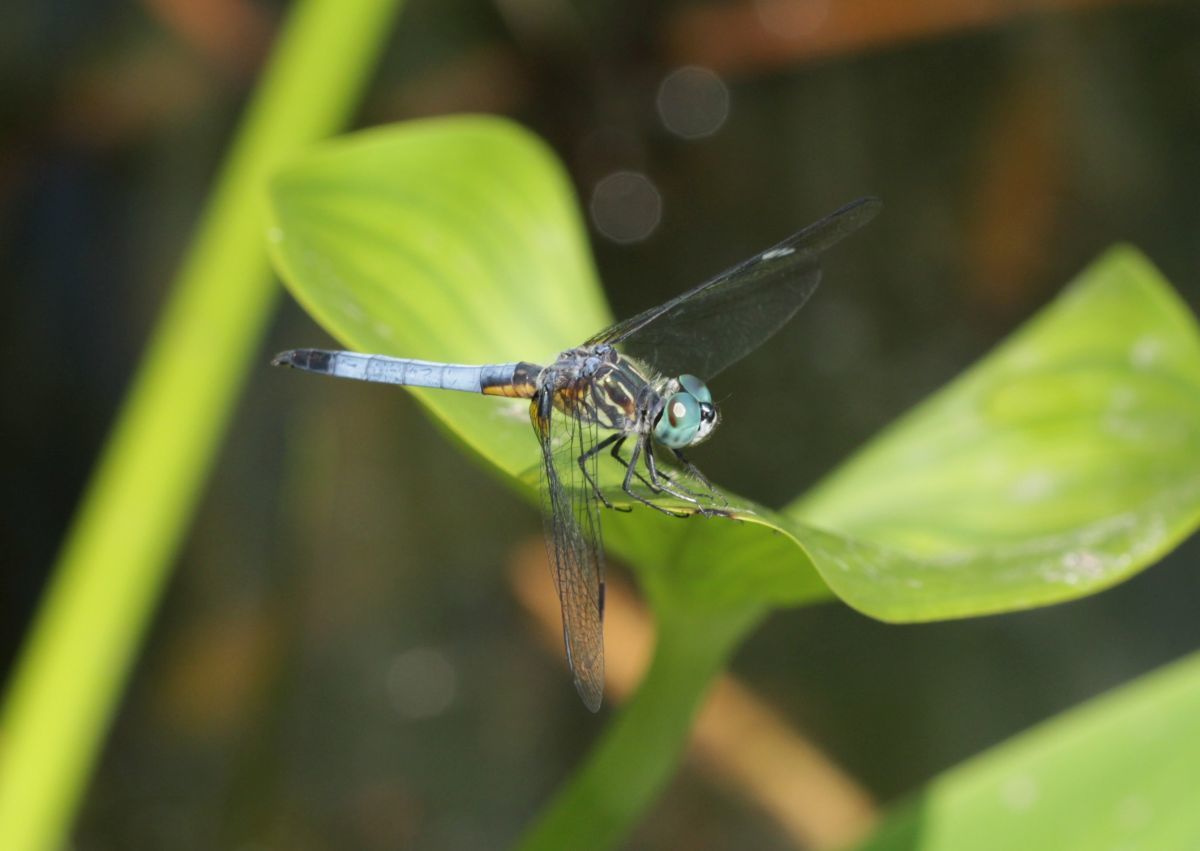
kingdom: Animalia
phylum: Arthropoda
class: Insecta
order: Odonata
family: Libellulidae
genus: Pachydiplax
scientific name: Pachydiplax longipennis
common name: Blue dasher
